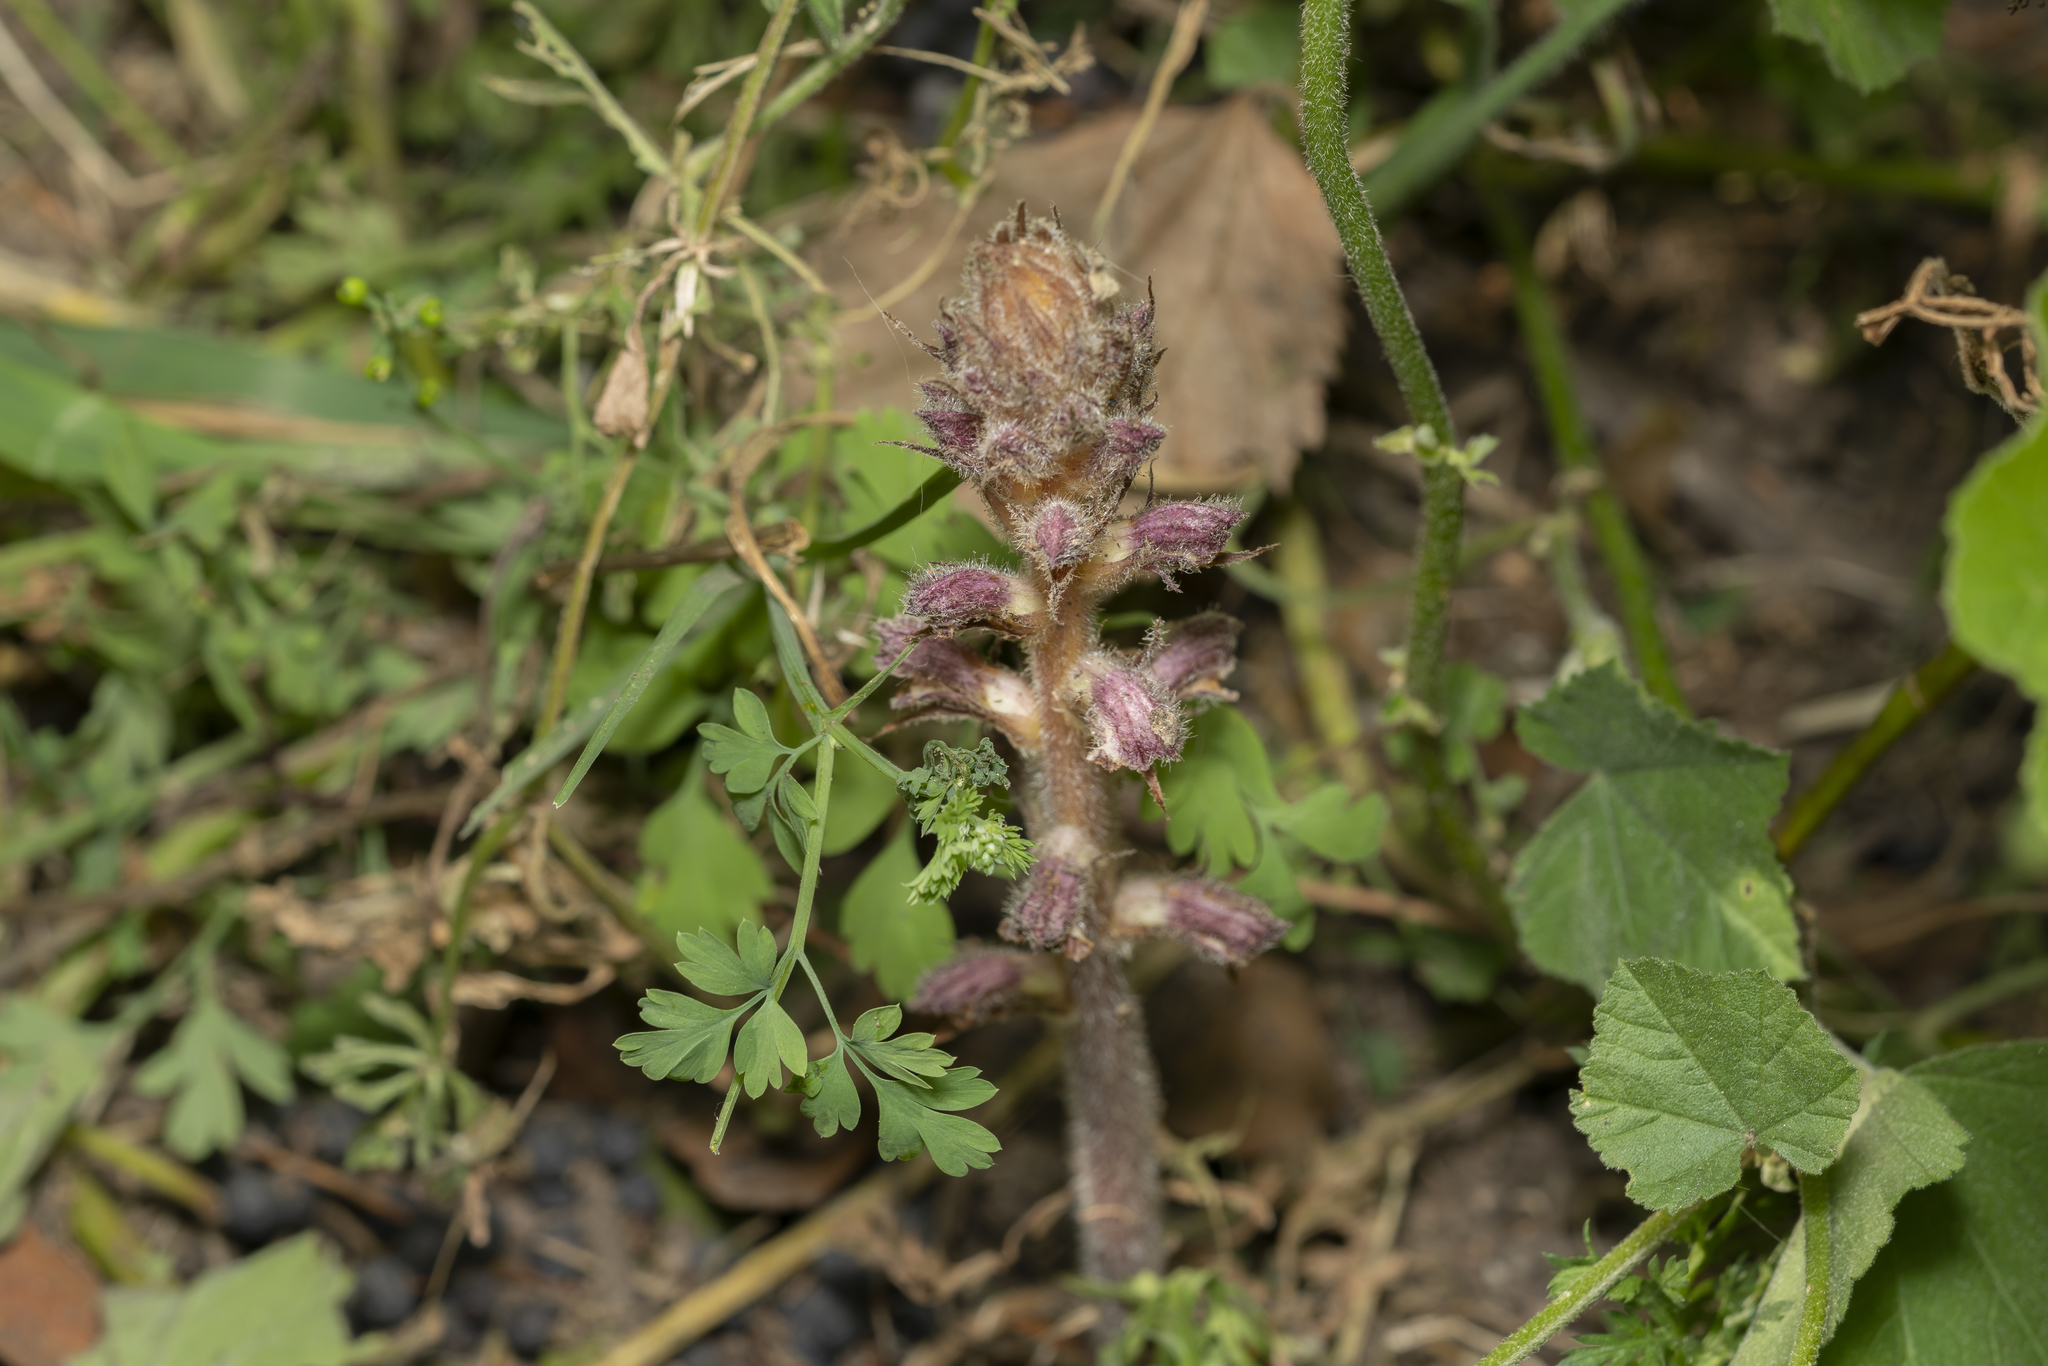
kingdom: Plantae
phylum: Tracheophyta
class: Magnoliopsida
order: Lamiales
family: Orobanchaceae
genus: Orobanche
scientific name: Orobanche pubescens
